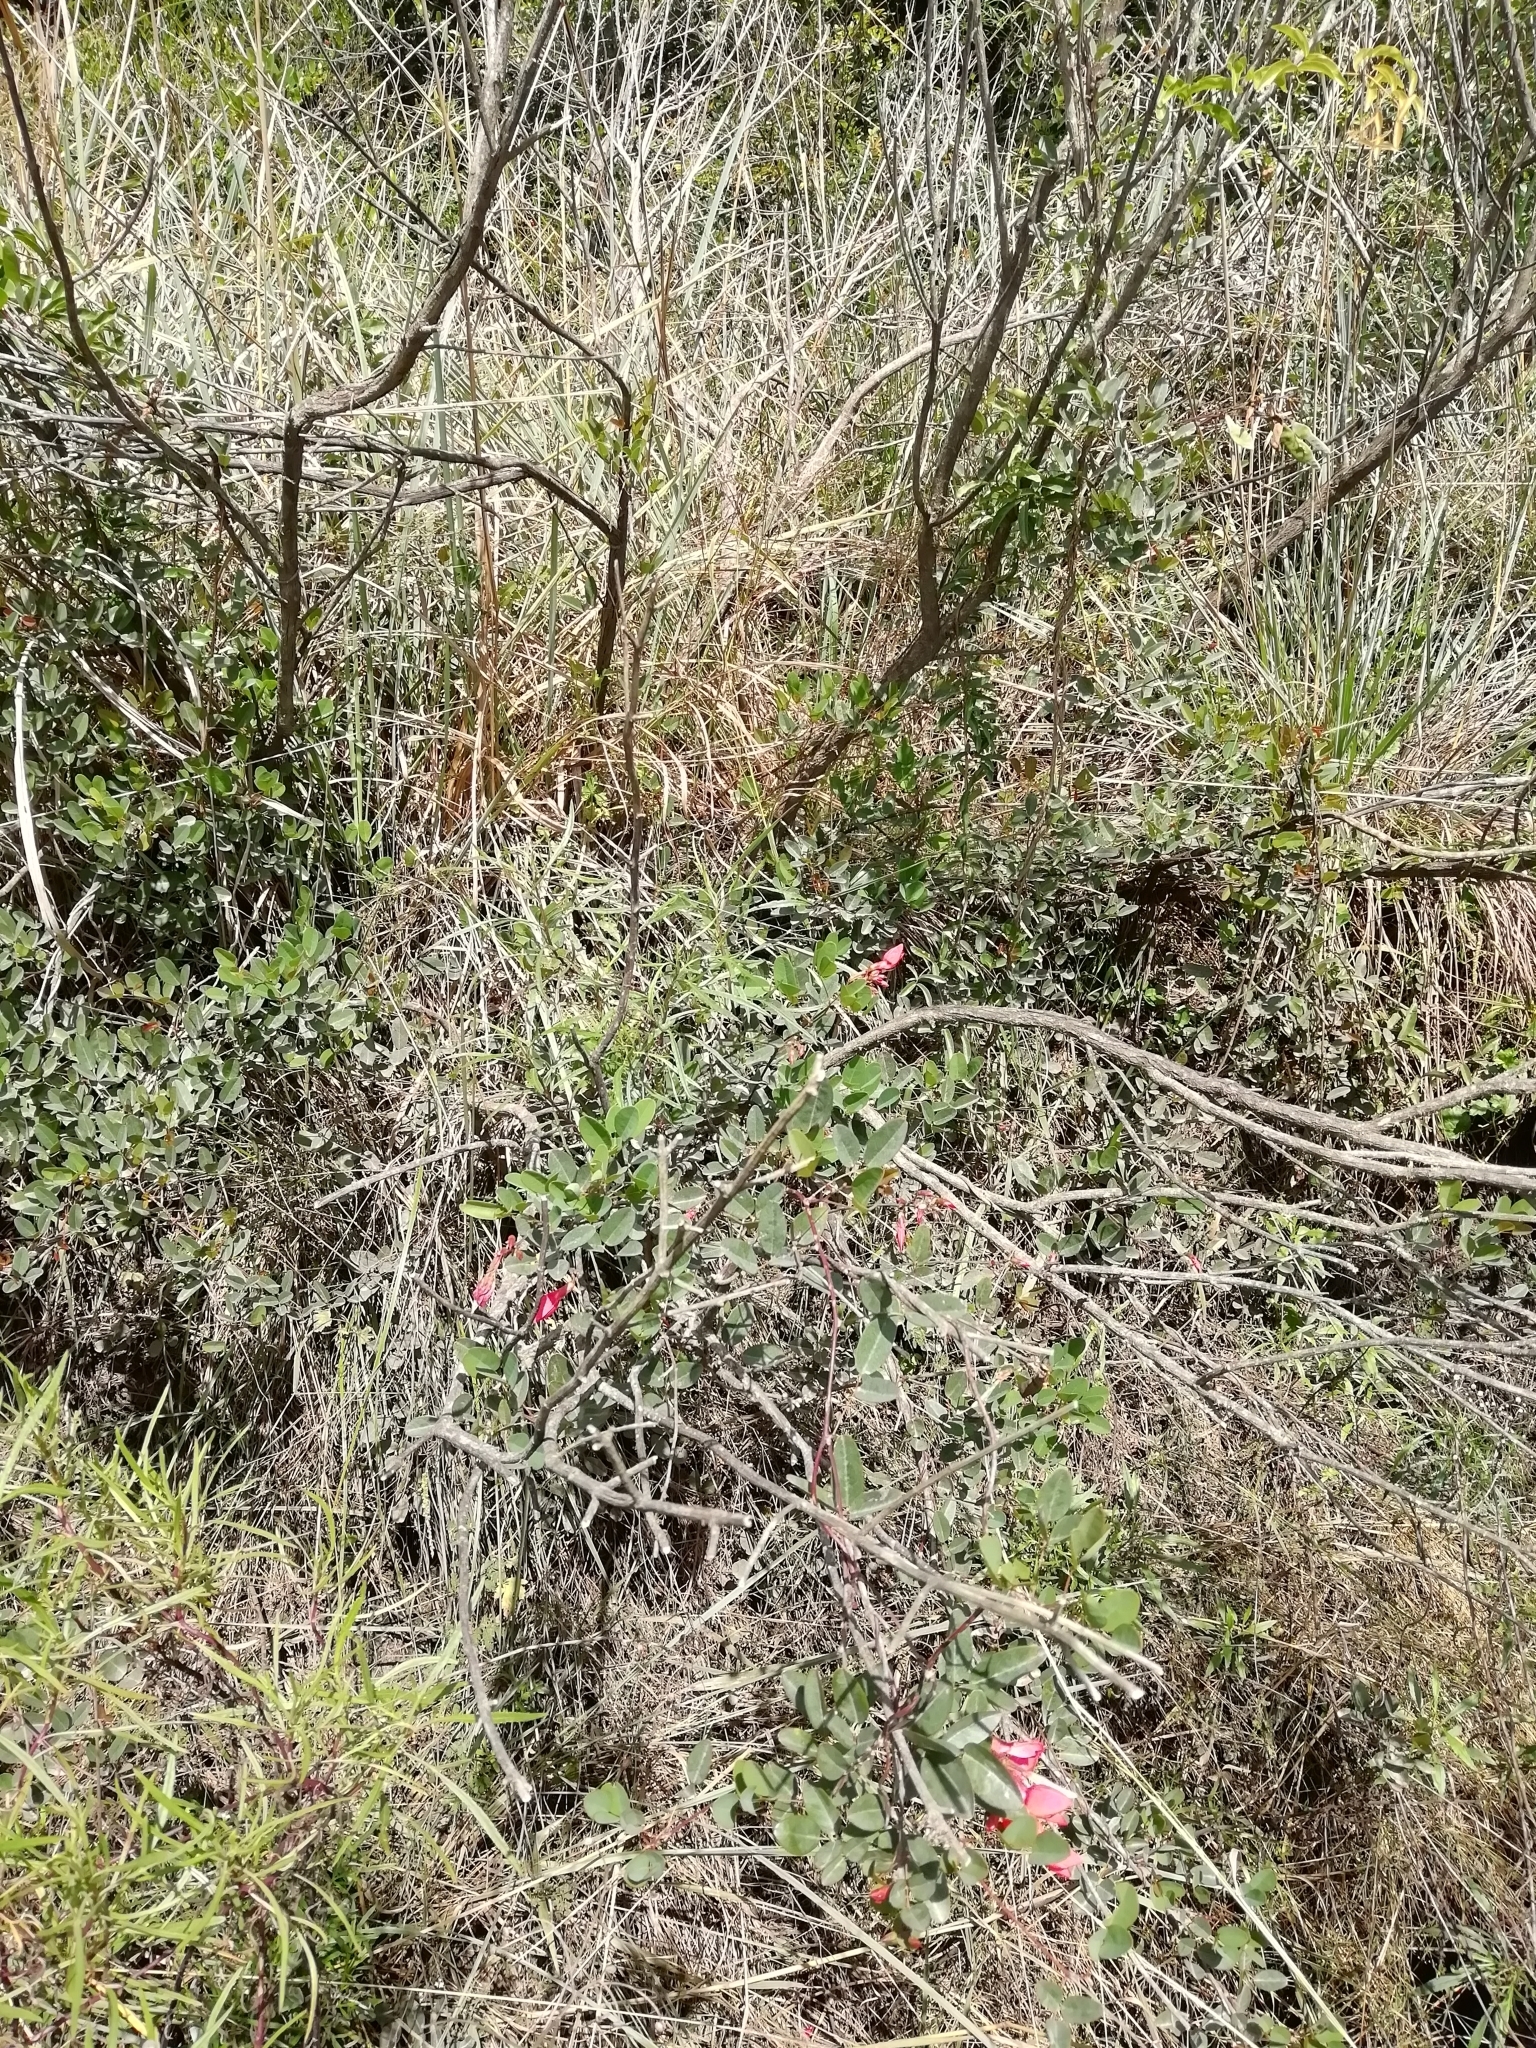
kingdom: Plantae
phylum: Tracheophyta
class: Magnoliopsida
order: Fabales
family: Fabaceae
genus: Camptosema
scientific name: Camptosema rubicundum
